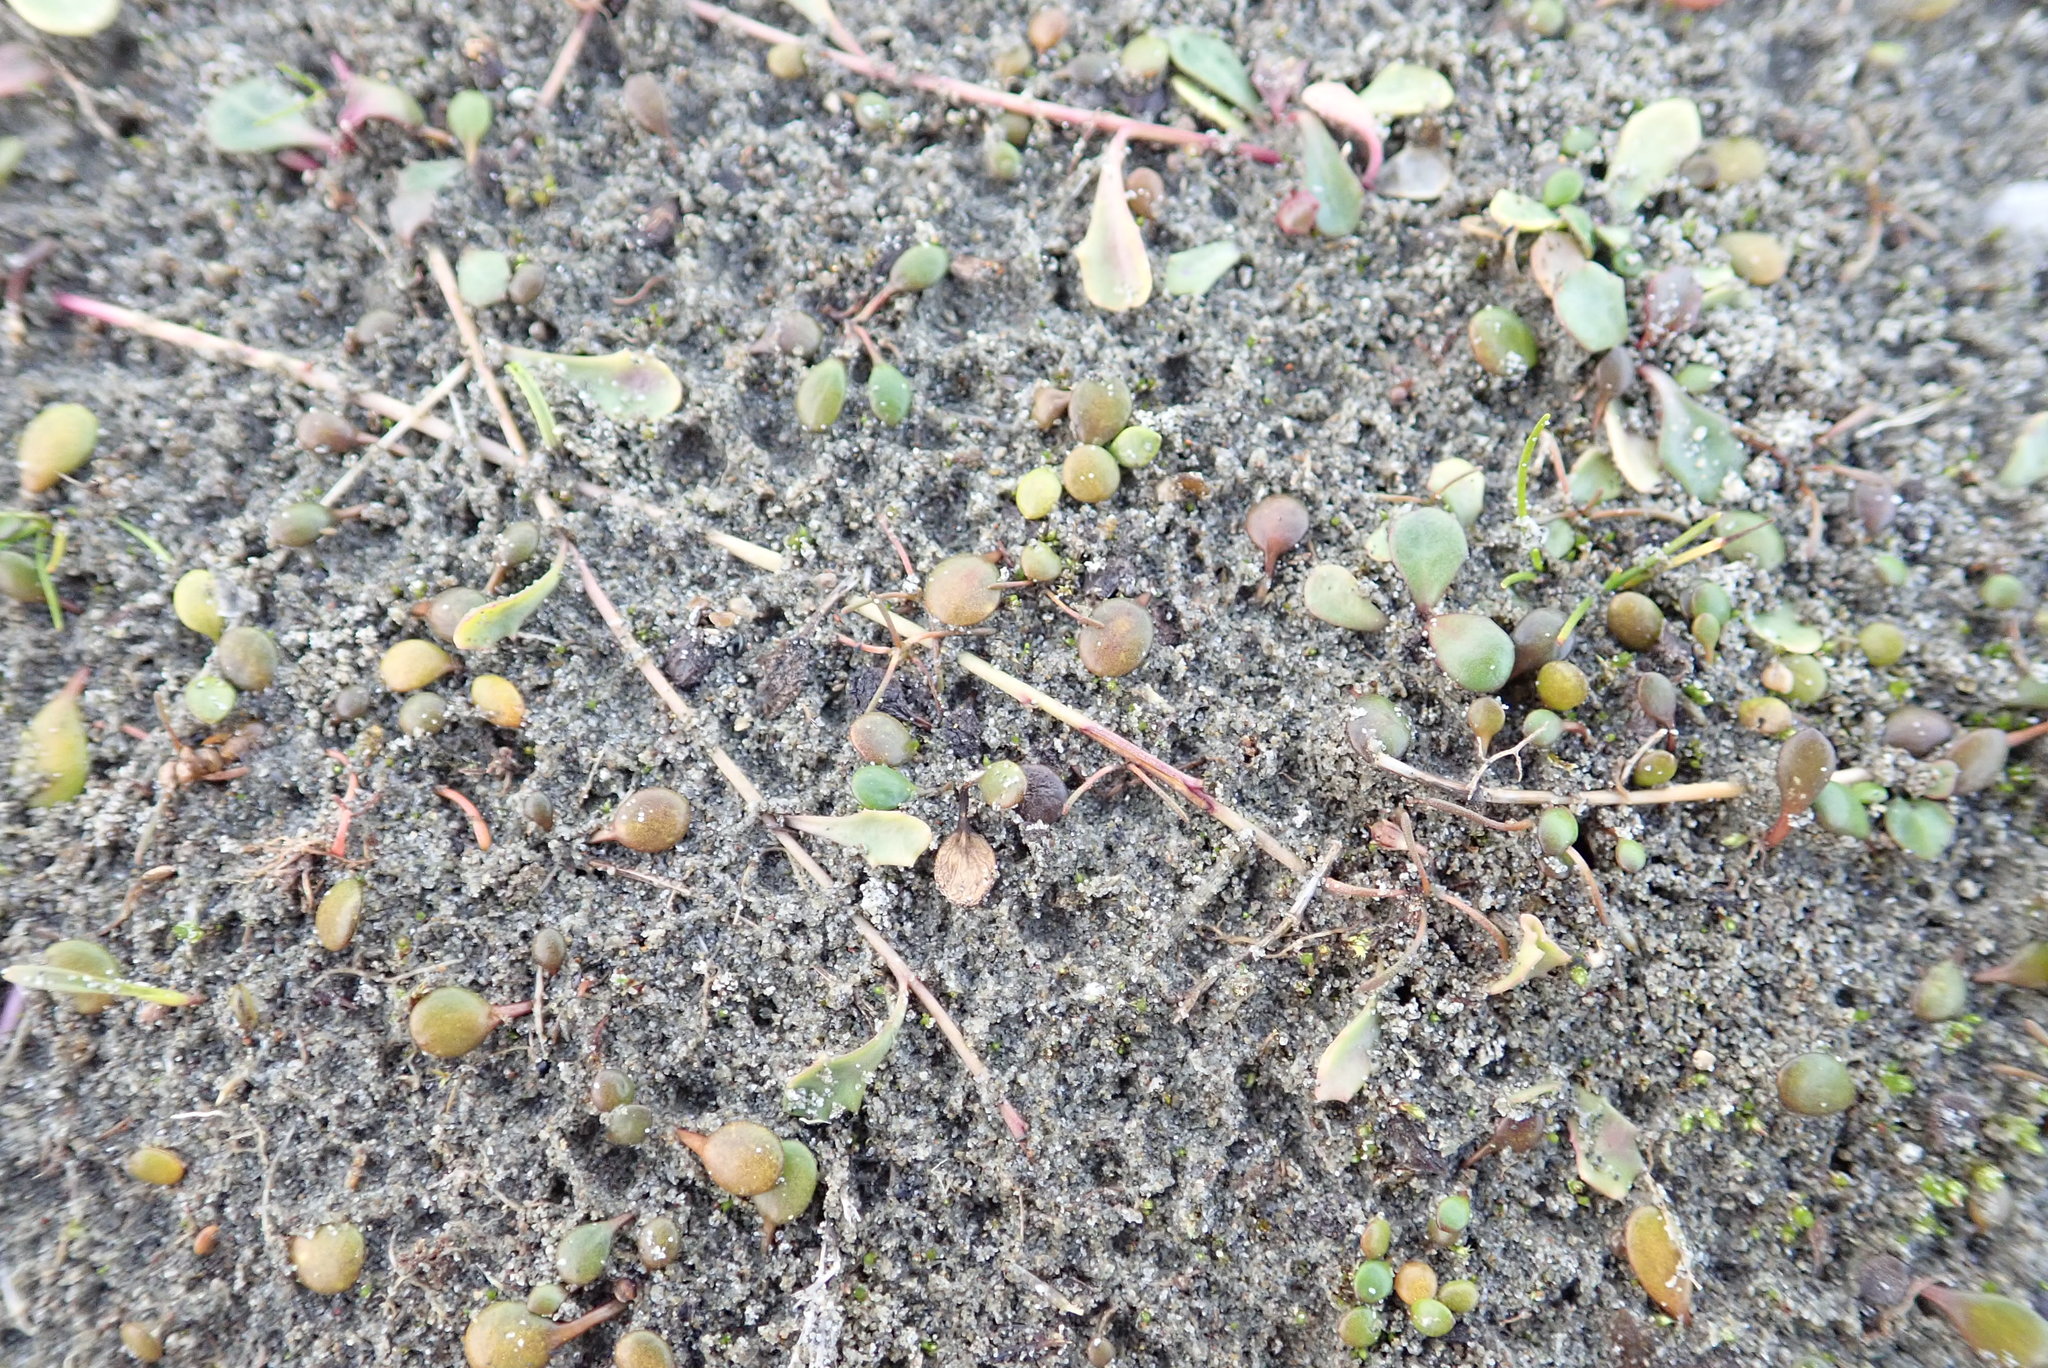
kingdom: Plantae
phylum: Tracheophyta
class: Magnoliopsida
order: Asterales
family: Goodeniaceae
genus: Goodenia
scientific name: Goodenia heenanii
